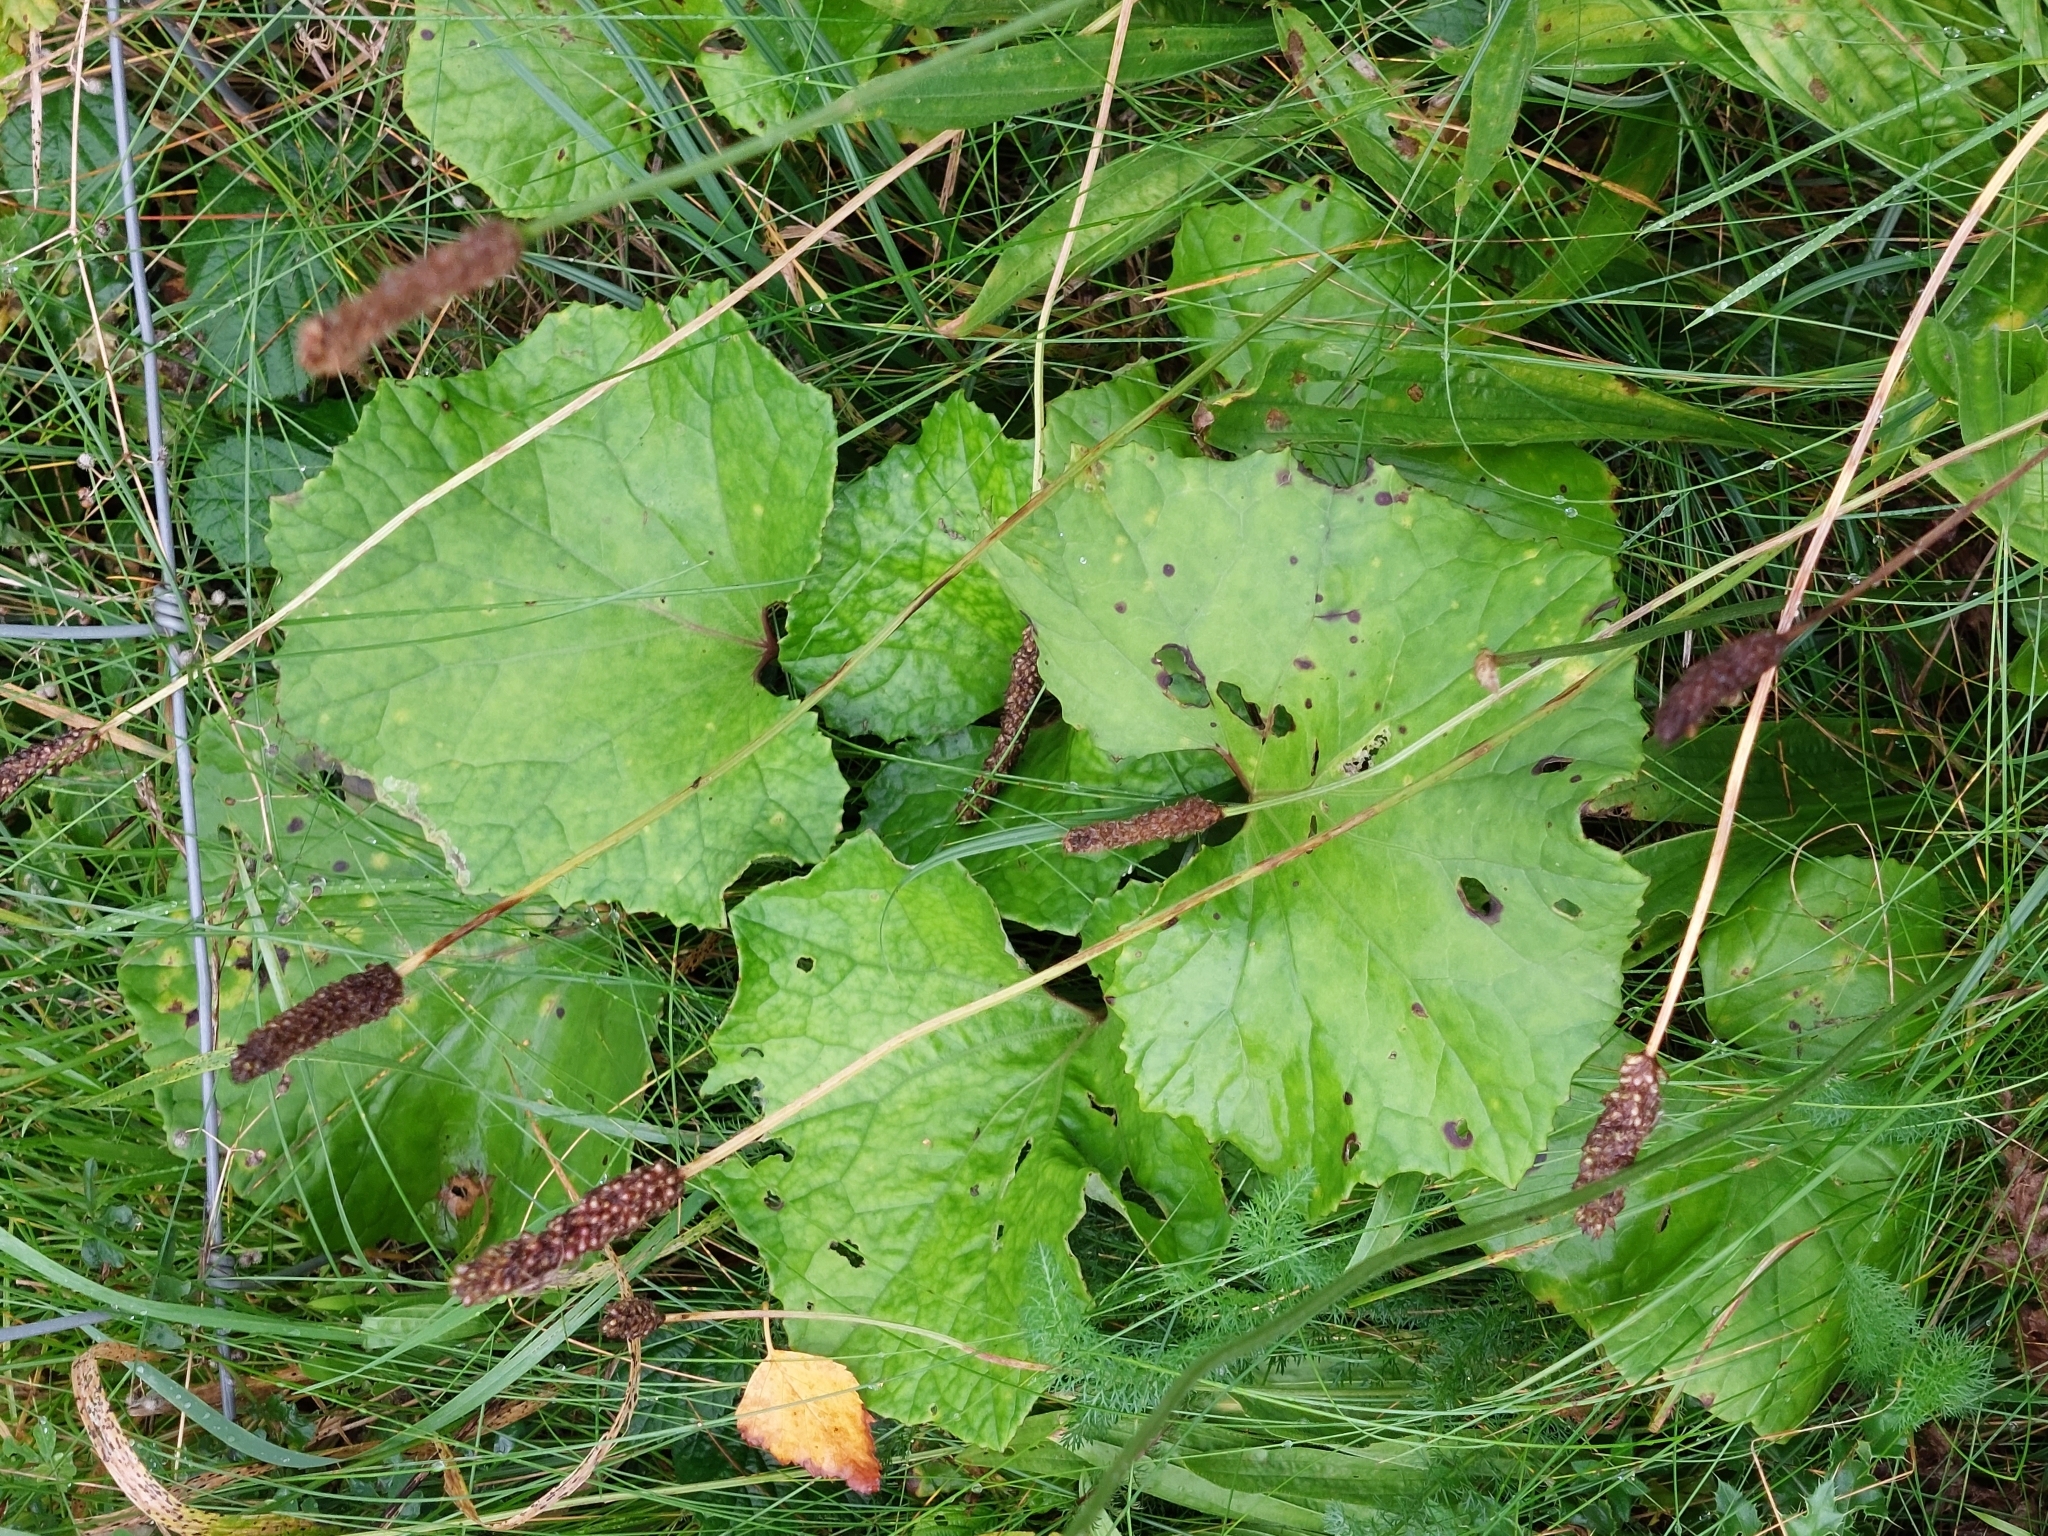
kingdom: Plantae
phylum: Tracheophyta
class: Magnoliopsida
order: Asterales
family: Asteraceae
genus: Tussilago
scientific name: Tussilago farfara
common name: Coltsfoot
